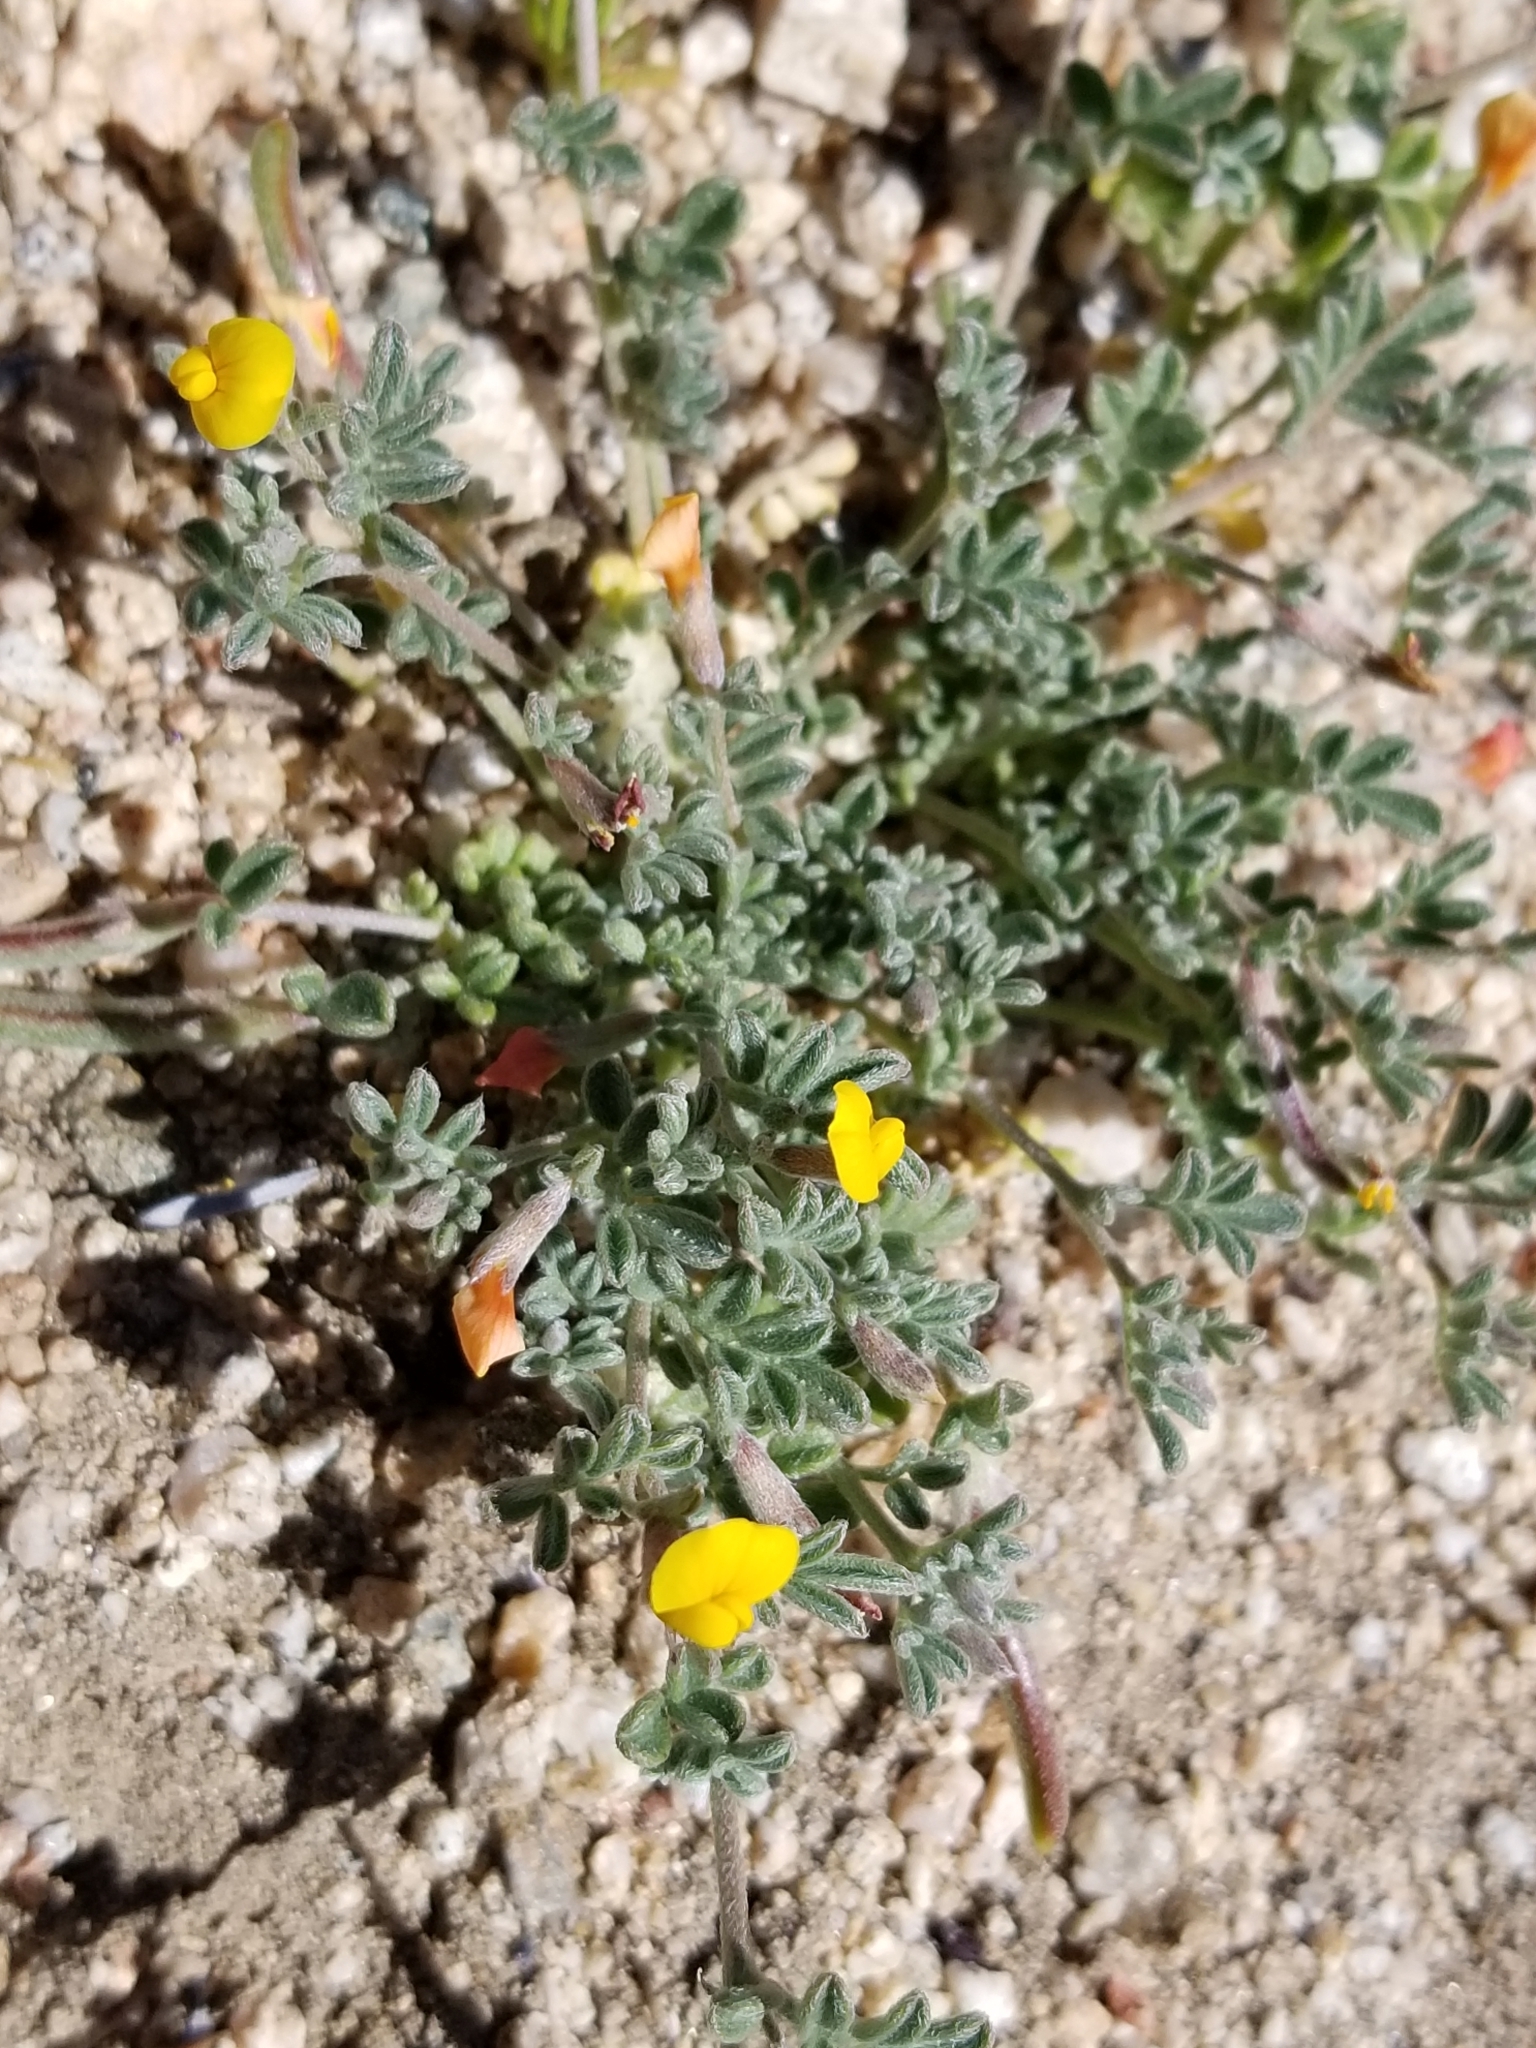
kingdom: Plantae
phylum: Tracheophyta
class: Magnoliopsida
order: Fabales
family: Fabaceae
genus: Acmispon
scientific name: Acmispon strigosus
